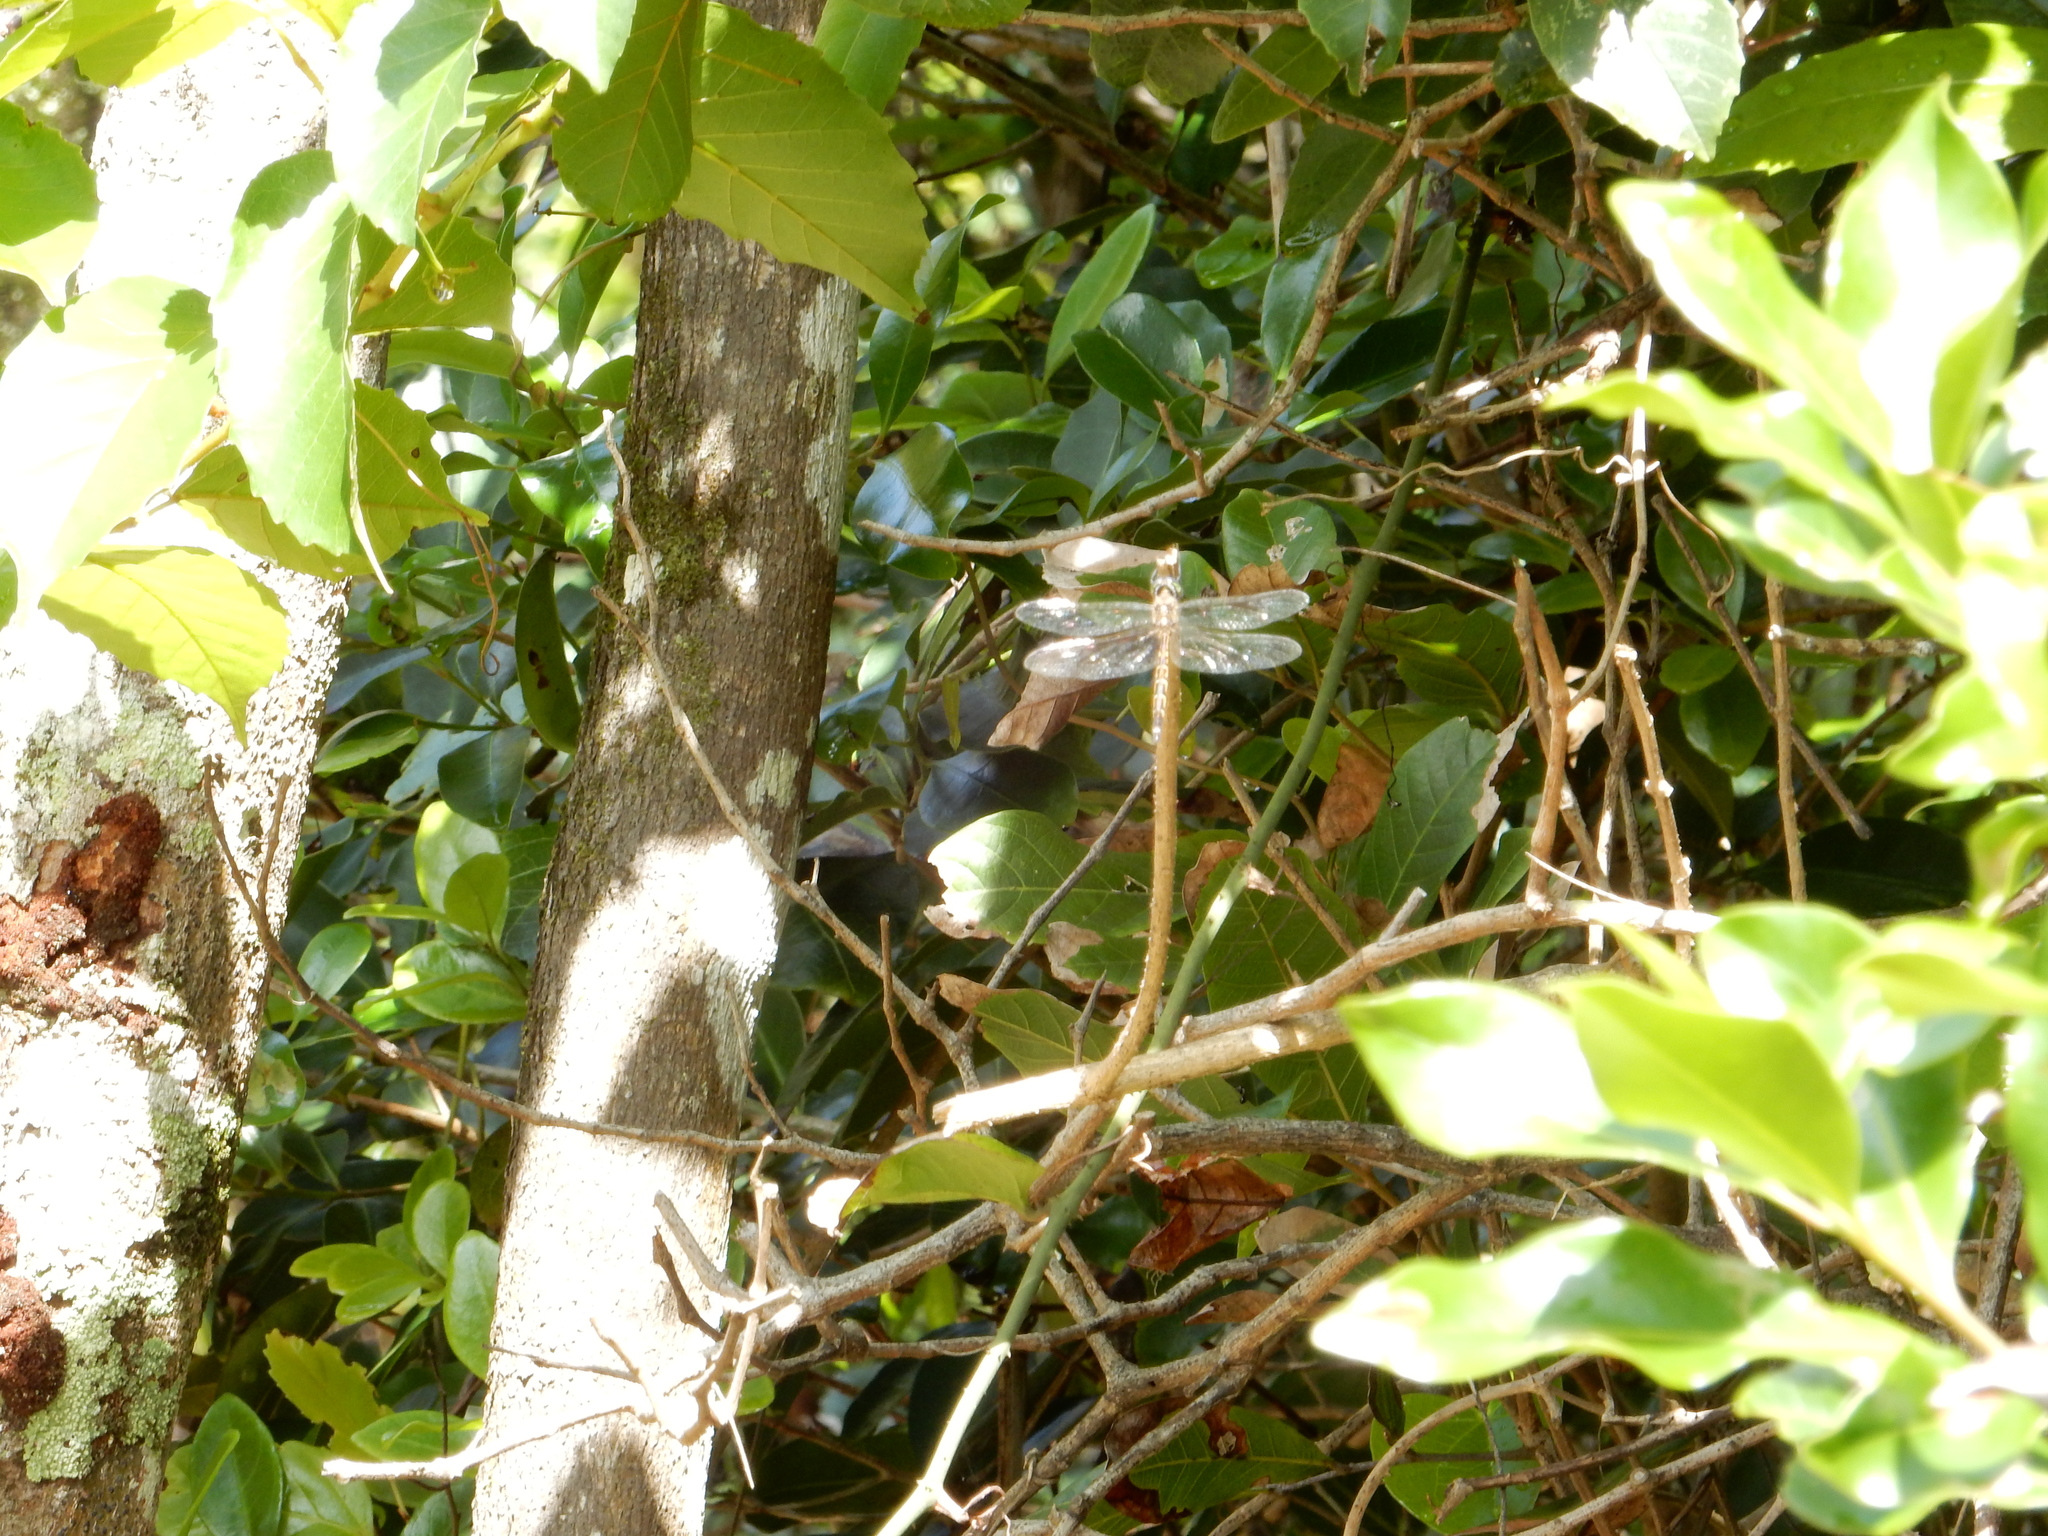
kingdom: Animalia
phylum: Arthropoda
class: Insecta
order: Odonata
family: Corduliidae
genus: Hemicordulia
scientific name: Hemicordulia australiae
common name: Sentry dragonfly
